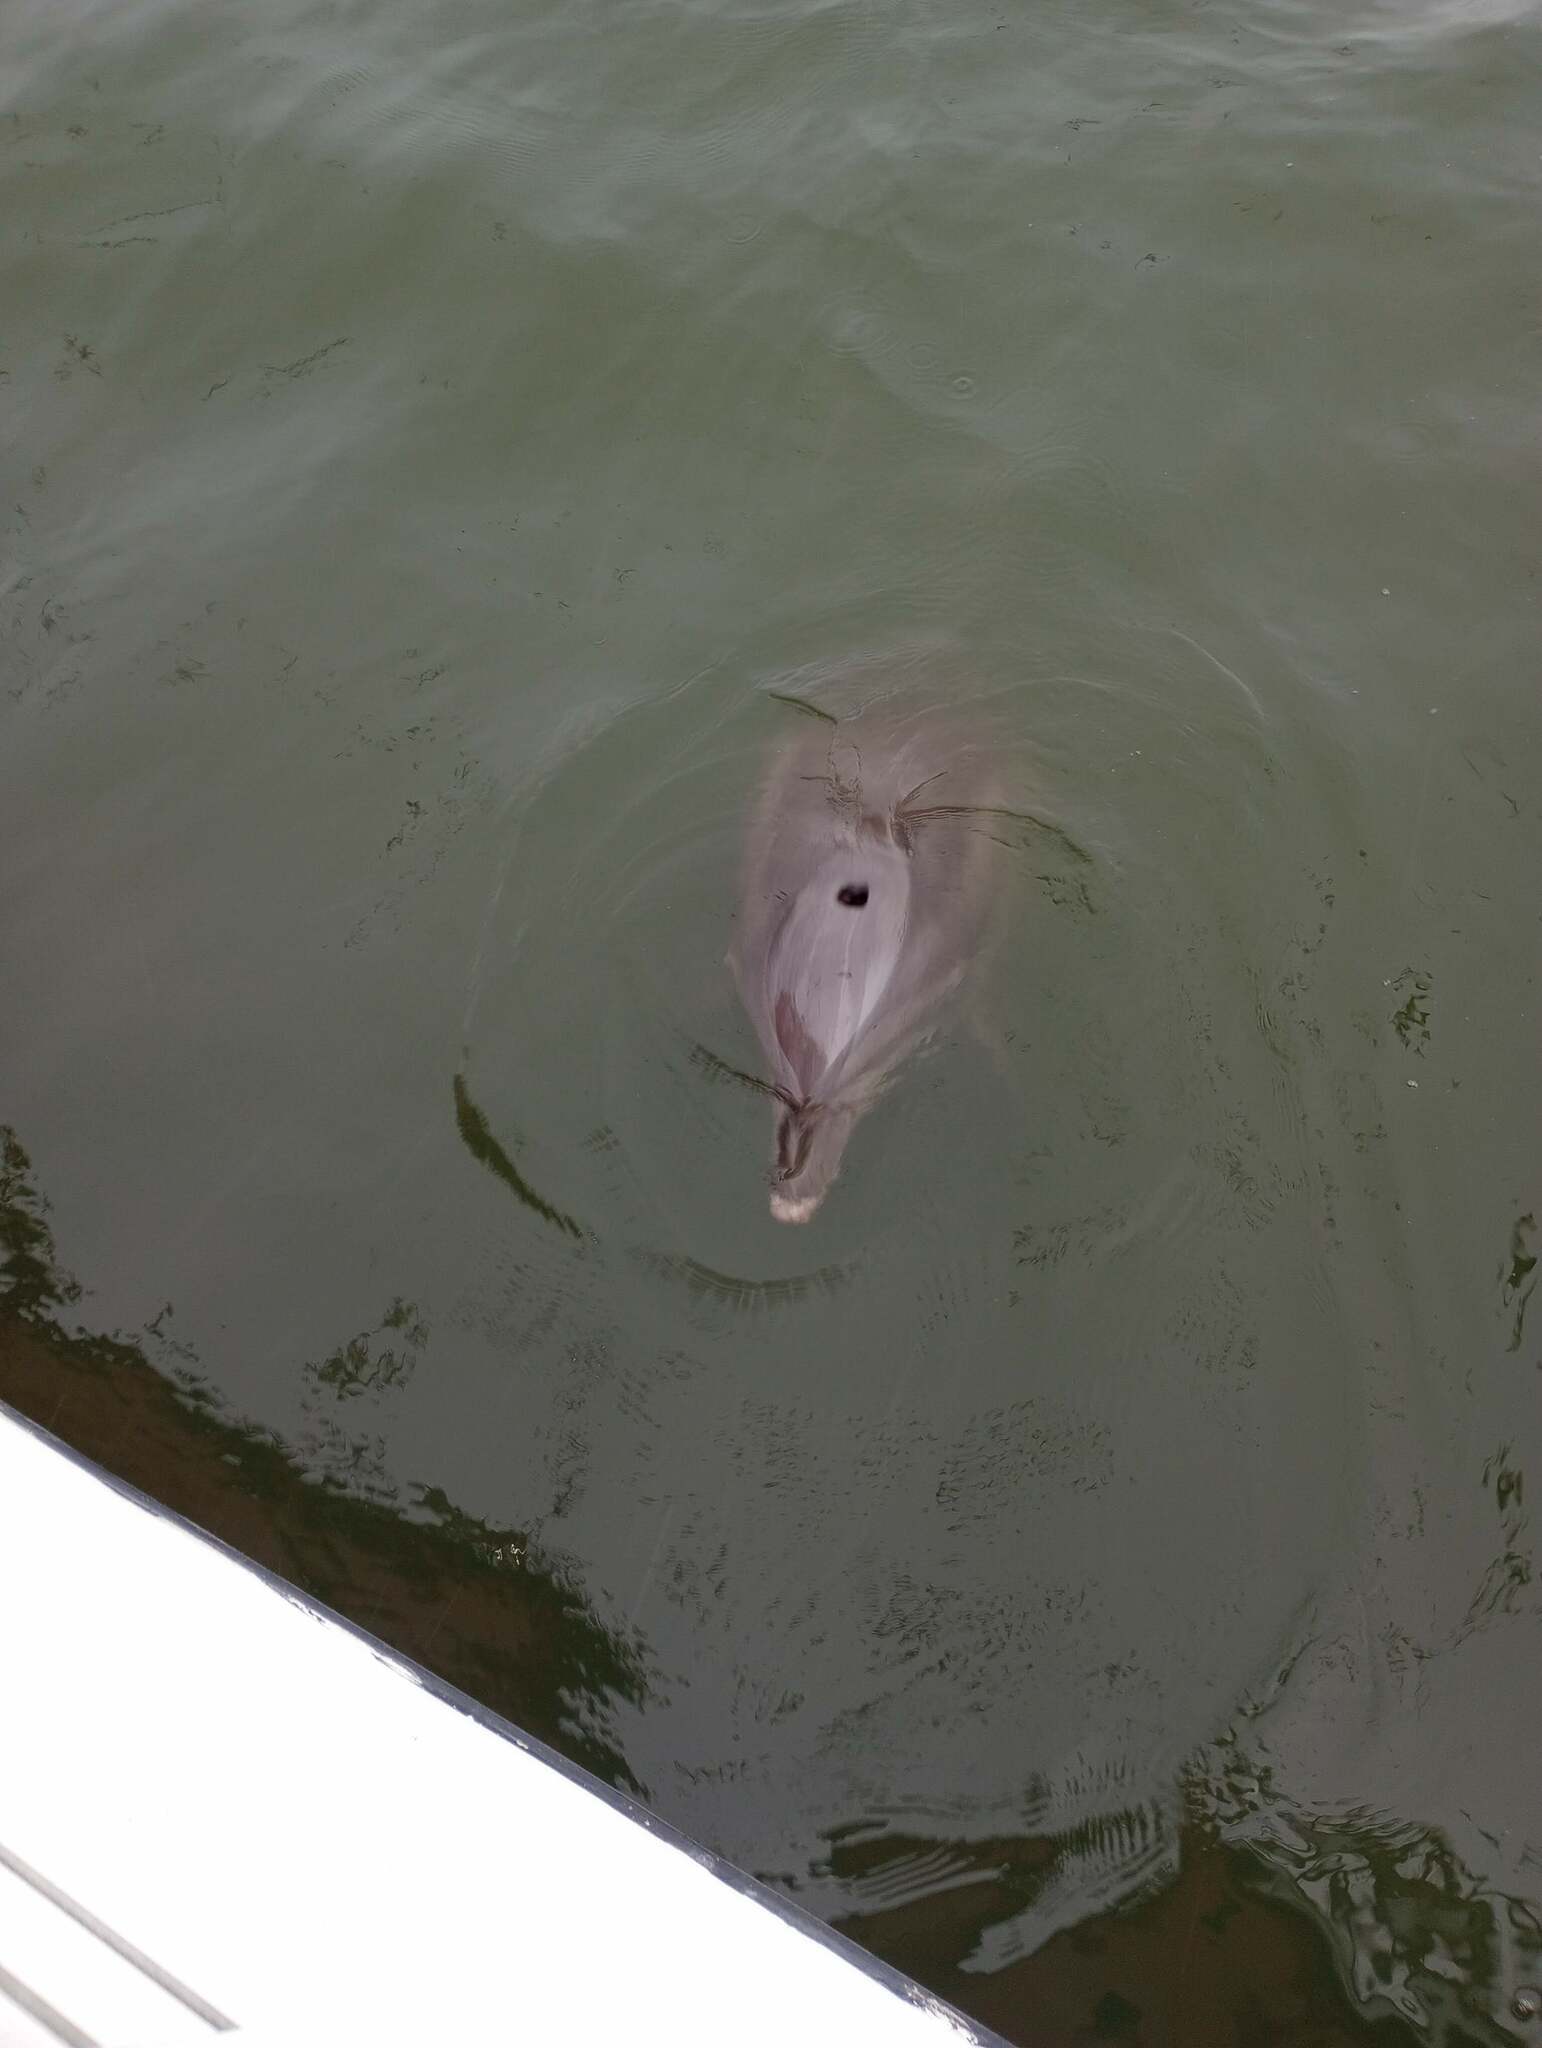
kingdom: Animalia
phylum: Chordata
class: Mammalia
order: Cetacea
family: Delphinidae
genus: Tursiops
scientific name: Tursiops truncatus
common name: Bottlenose dolphin
